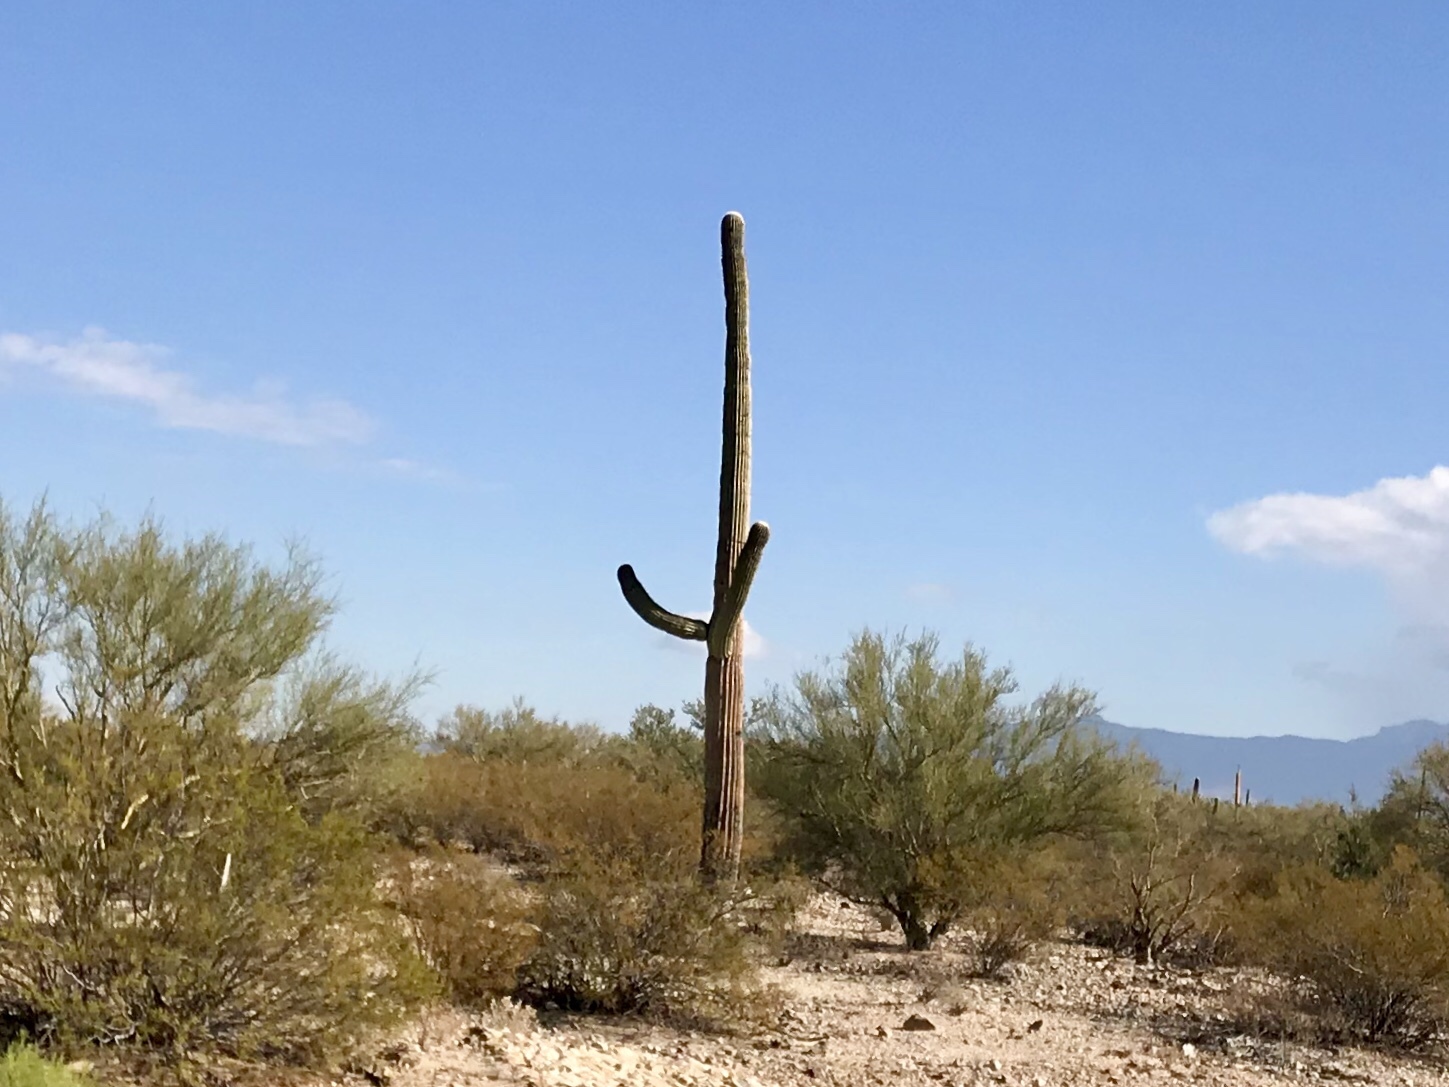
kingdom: Plantae
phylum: Tracheophyta
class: Magnoliopsida
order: Caryophyllales
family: Cactaceae
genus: Carnegiea
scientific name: Carnegiea gigantea
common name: Saguaro
